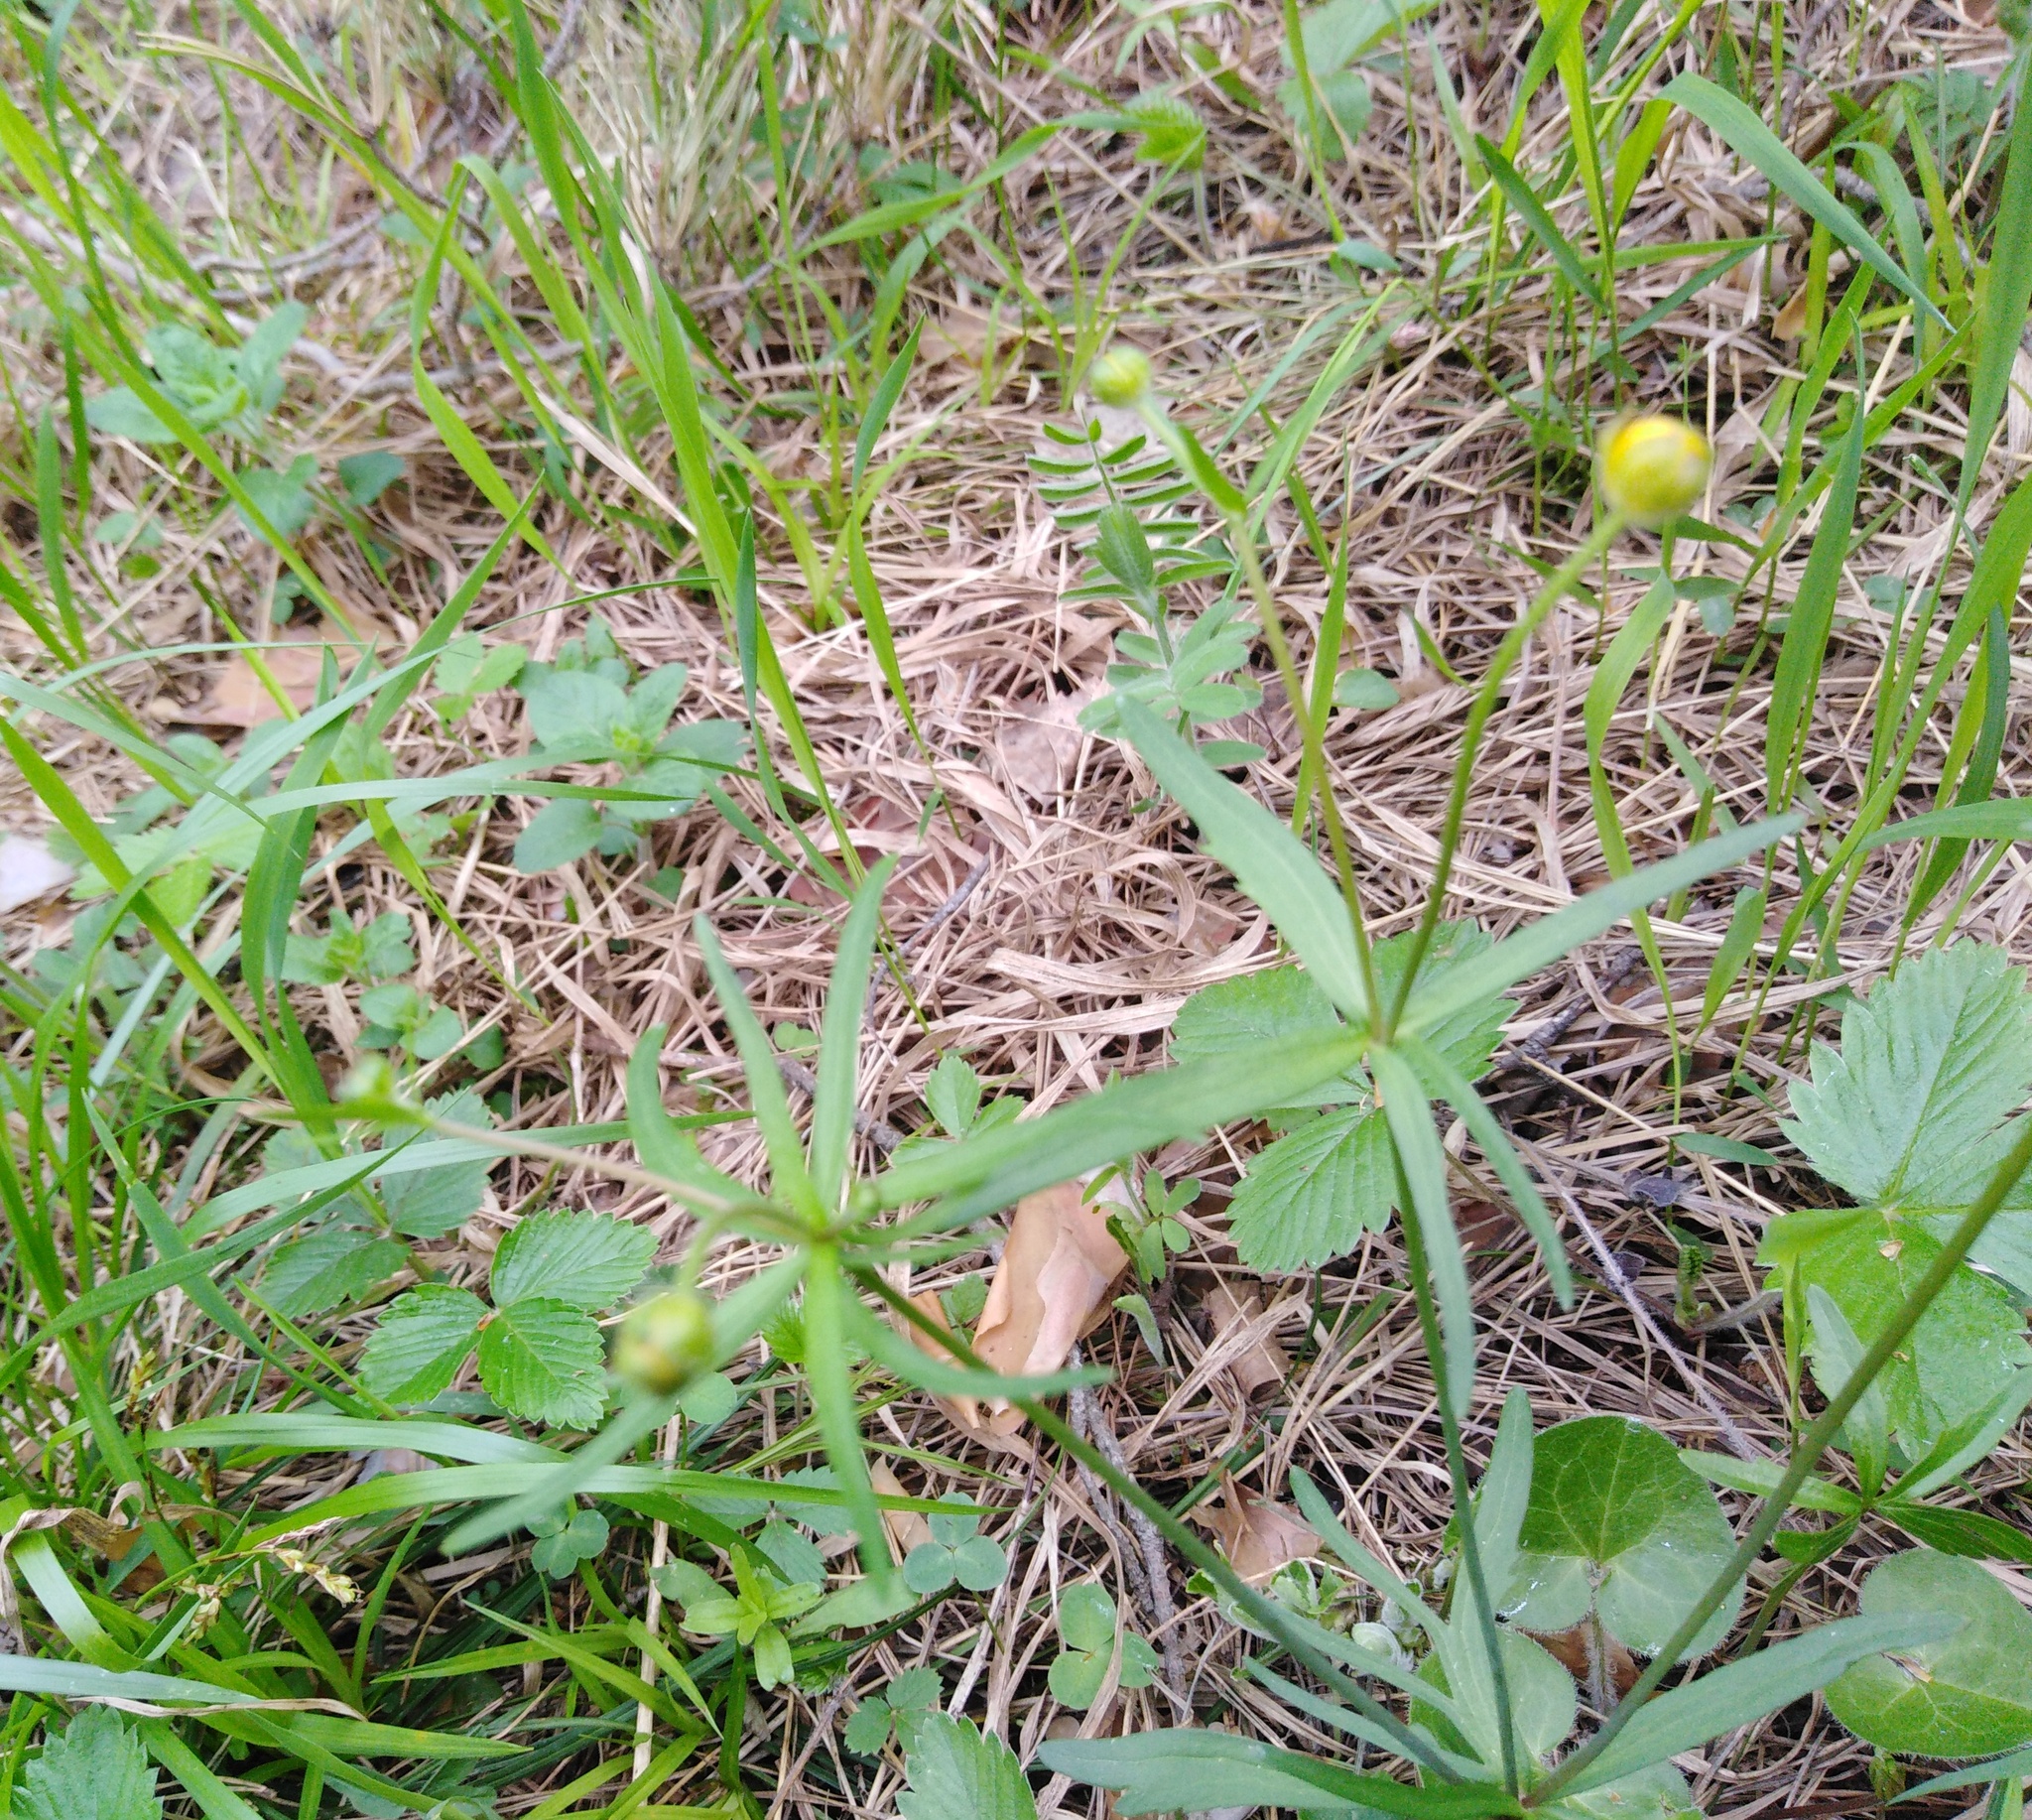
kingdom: Plantae
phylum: Tracheophyta
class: Magnoliopsida
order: Ranunculales
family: Ranunculaceae
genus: Ranunculus
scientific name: Ranunculus auricomus
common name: Goldilocks buttercup
